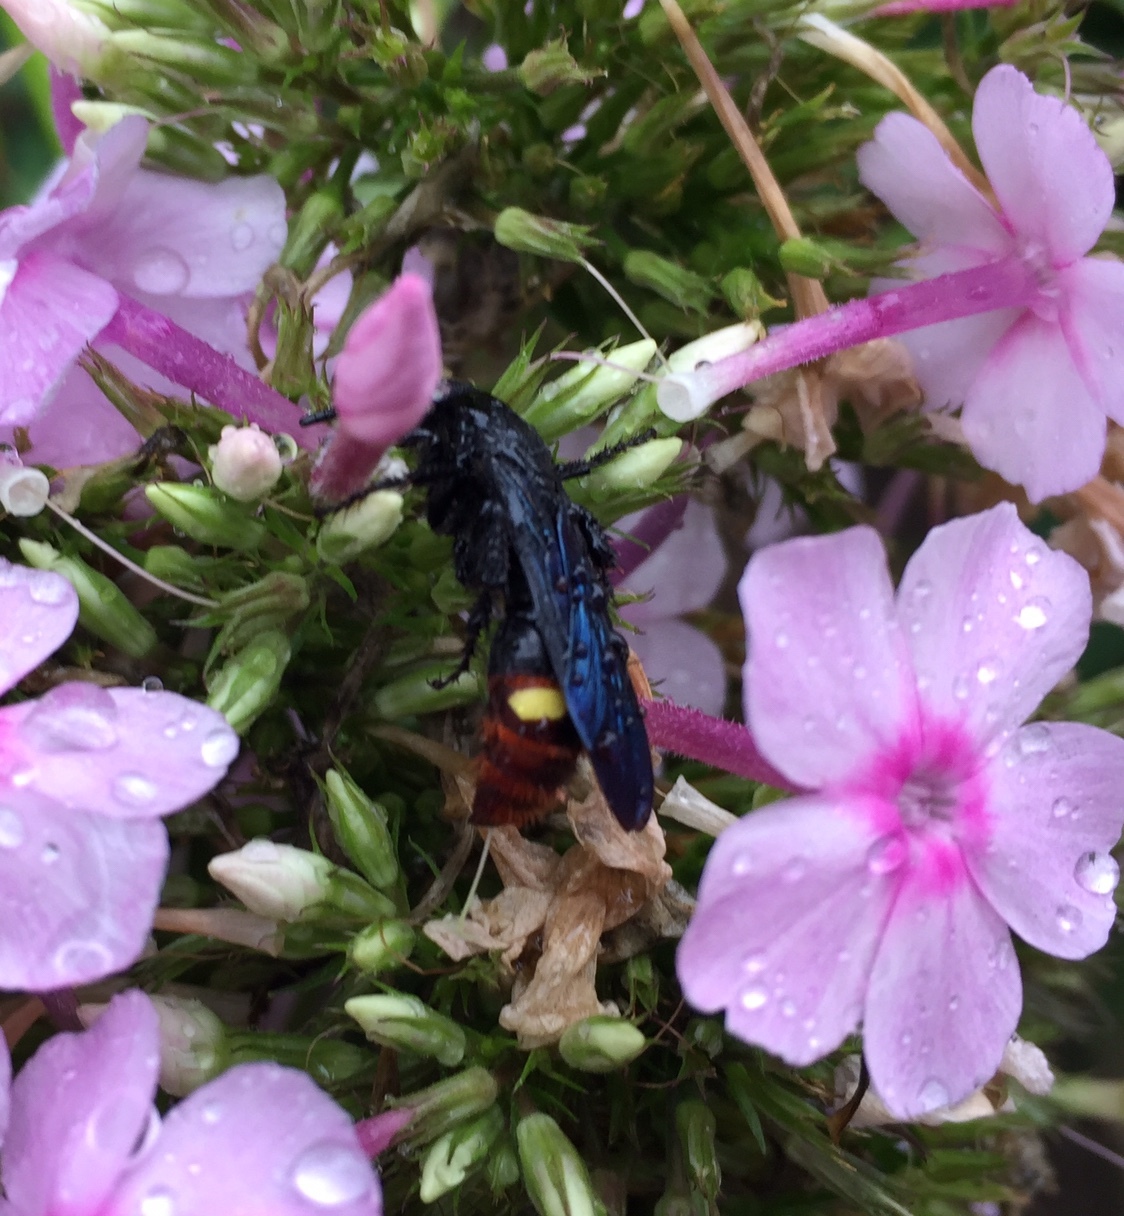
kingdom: Animalia
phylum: Arthropoda
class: Insecta
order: Hymenoptera
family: Scoliidae
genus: Scolia
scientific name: Scolia dubia
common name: Blue-winged scoliid wasp
